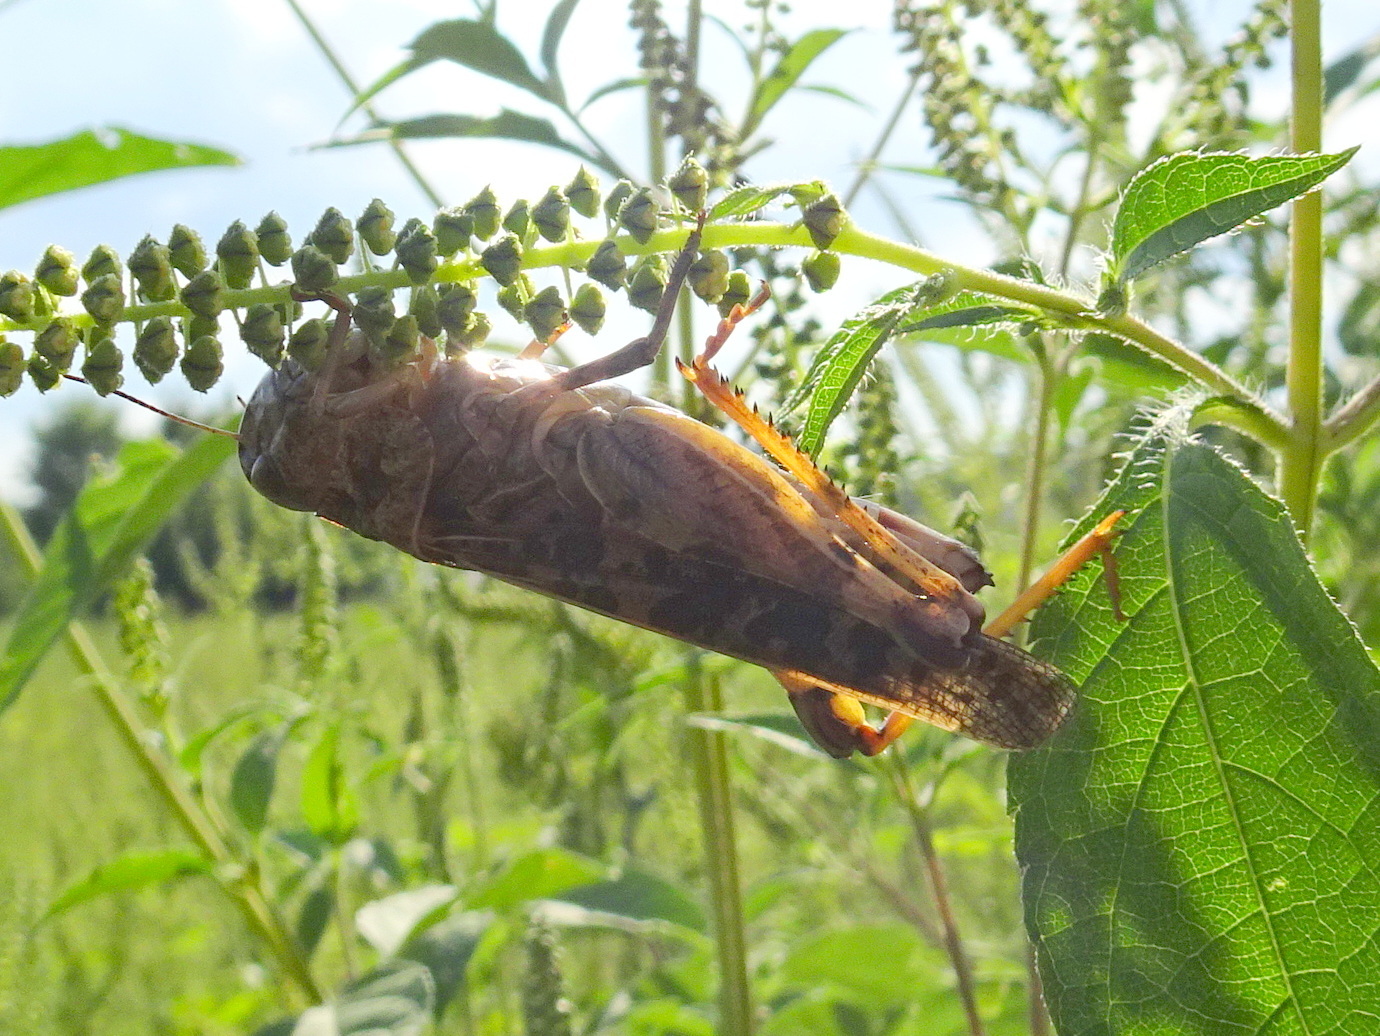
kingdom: Animalia
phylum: Arthropoda
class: Insecta
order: Orthoptera
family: Acrididae
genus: Hippiscus
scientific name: Hippiscus ocelote
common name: Wrinkled grasshopper
